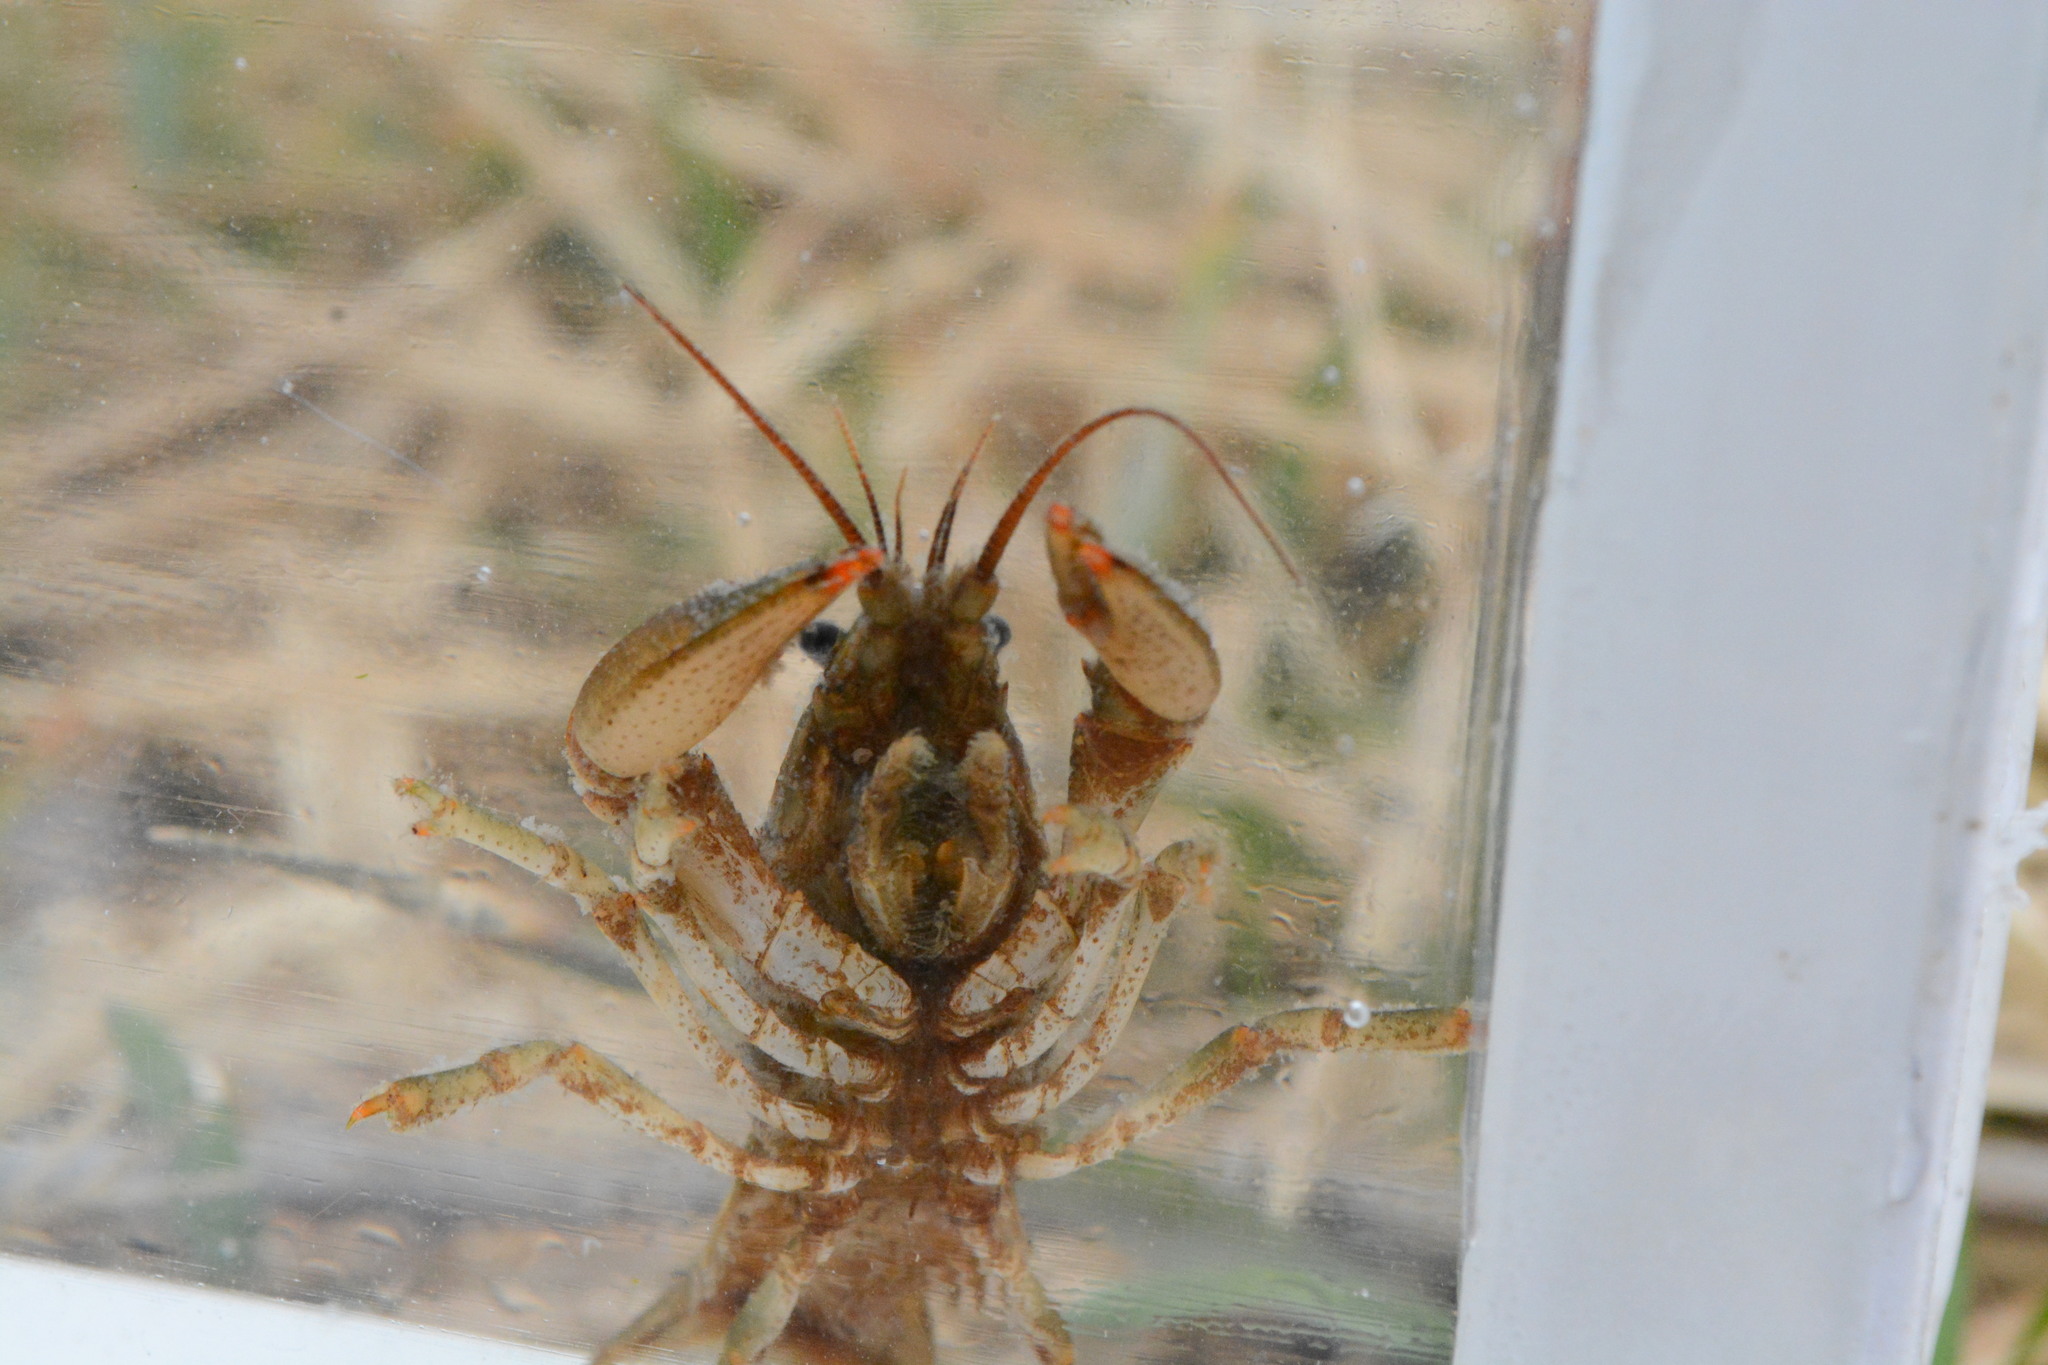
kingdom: Animalia
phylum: Arthropoda
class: Malacostraca
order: Decapoda
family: Cambaridae
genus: Faxonius
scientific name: Faxonius propinquus
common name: Northern clearwater crayfish
